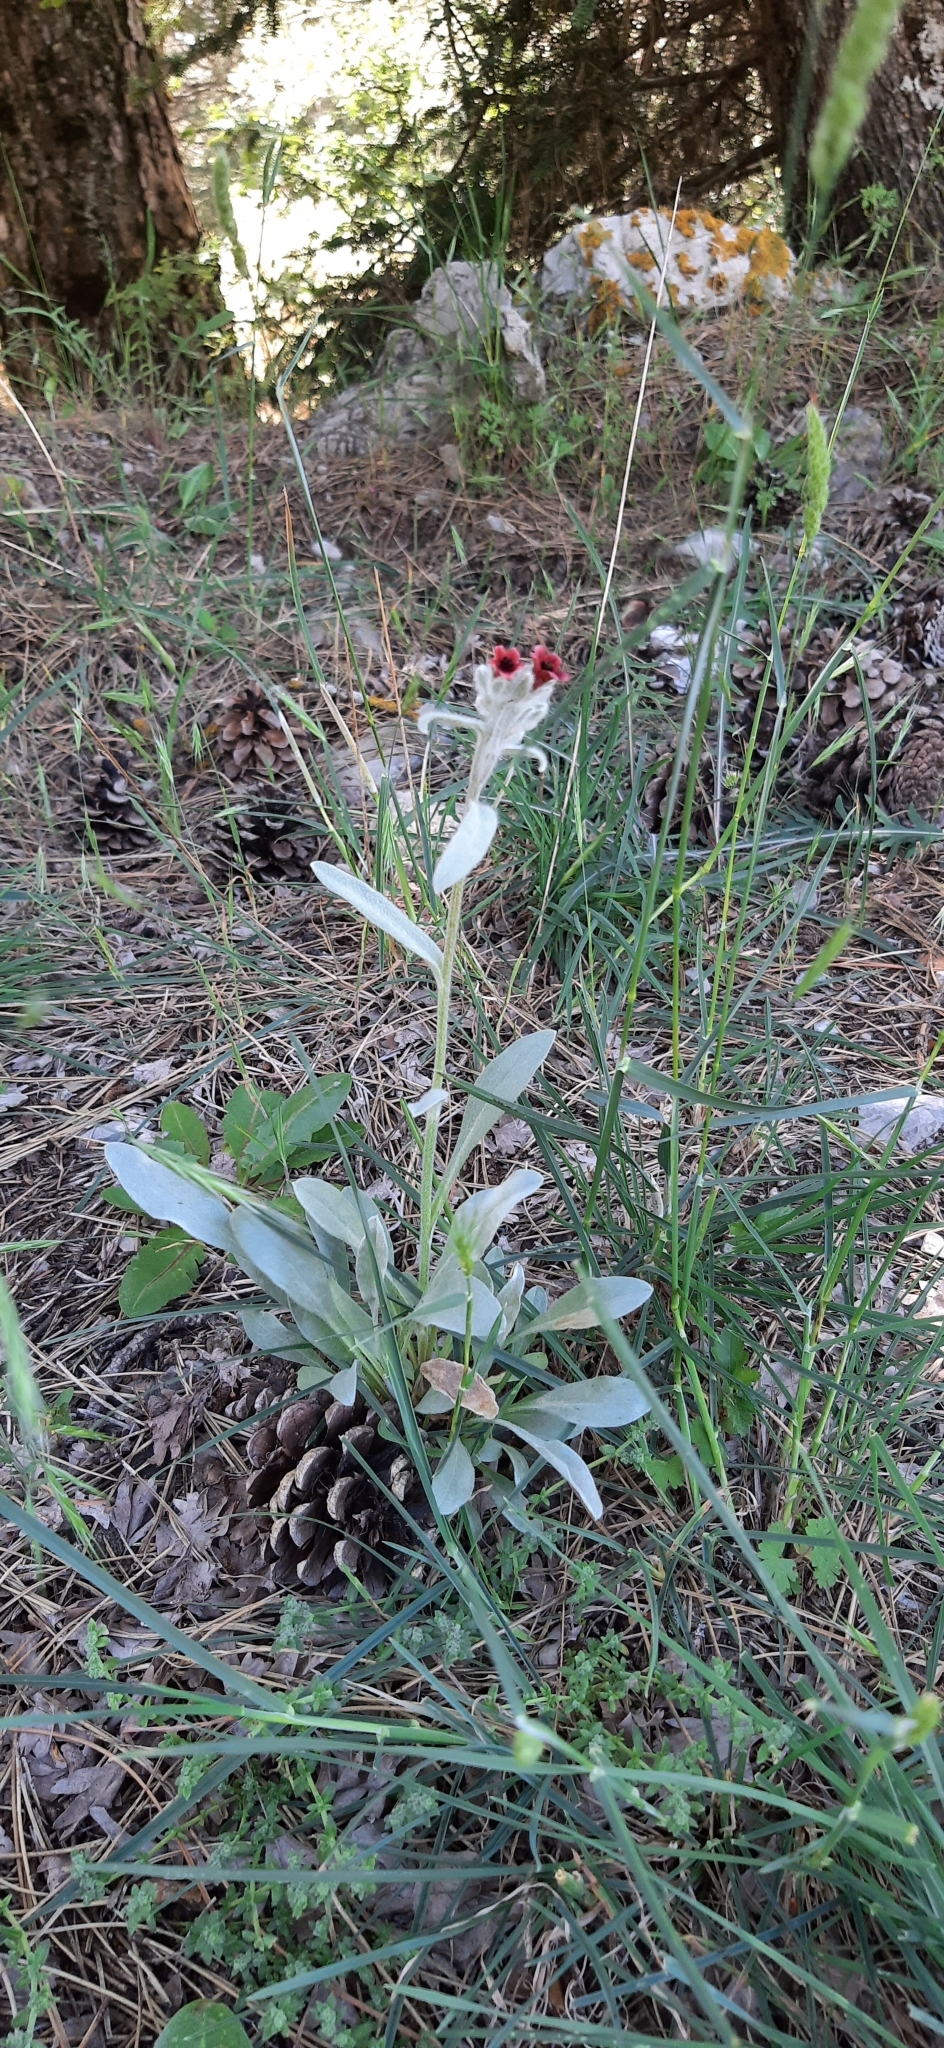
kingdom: Plantae
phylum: Tracheophyta
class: Magnoliopsida
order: Boraginales
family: Boraginaceae
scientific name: Boraginaceae
